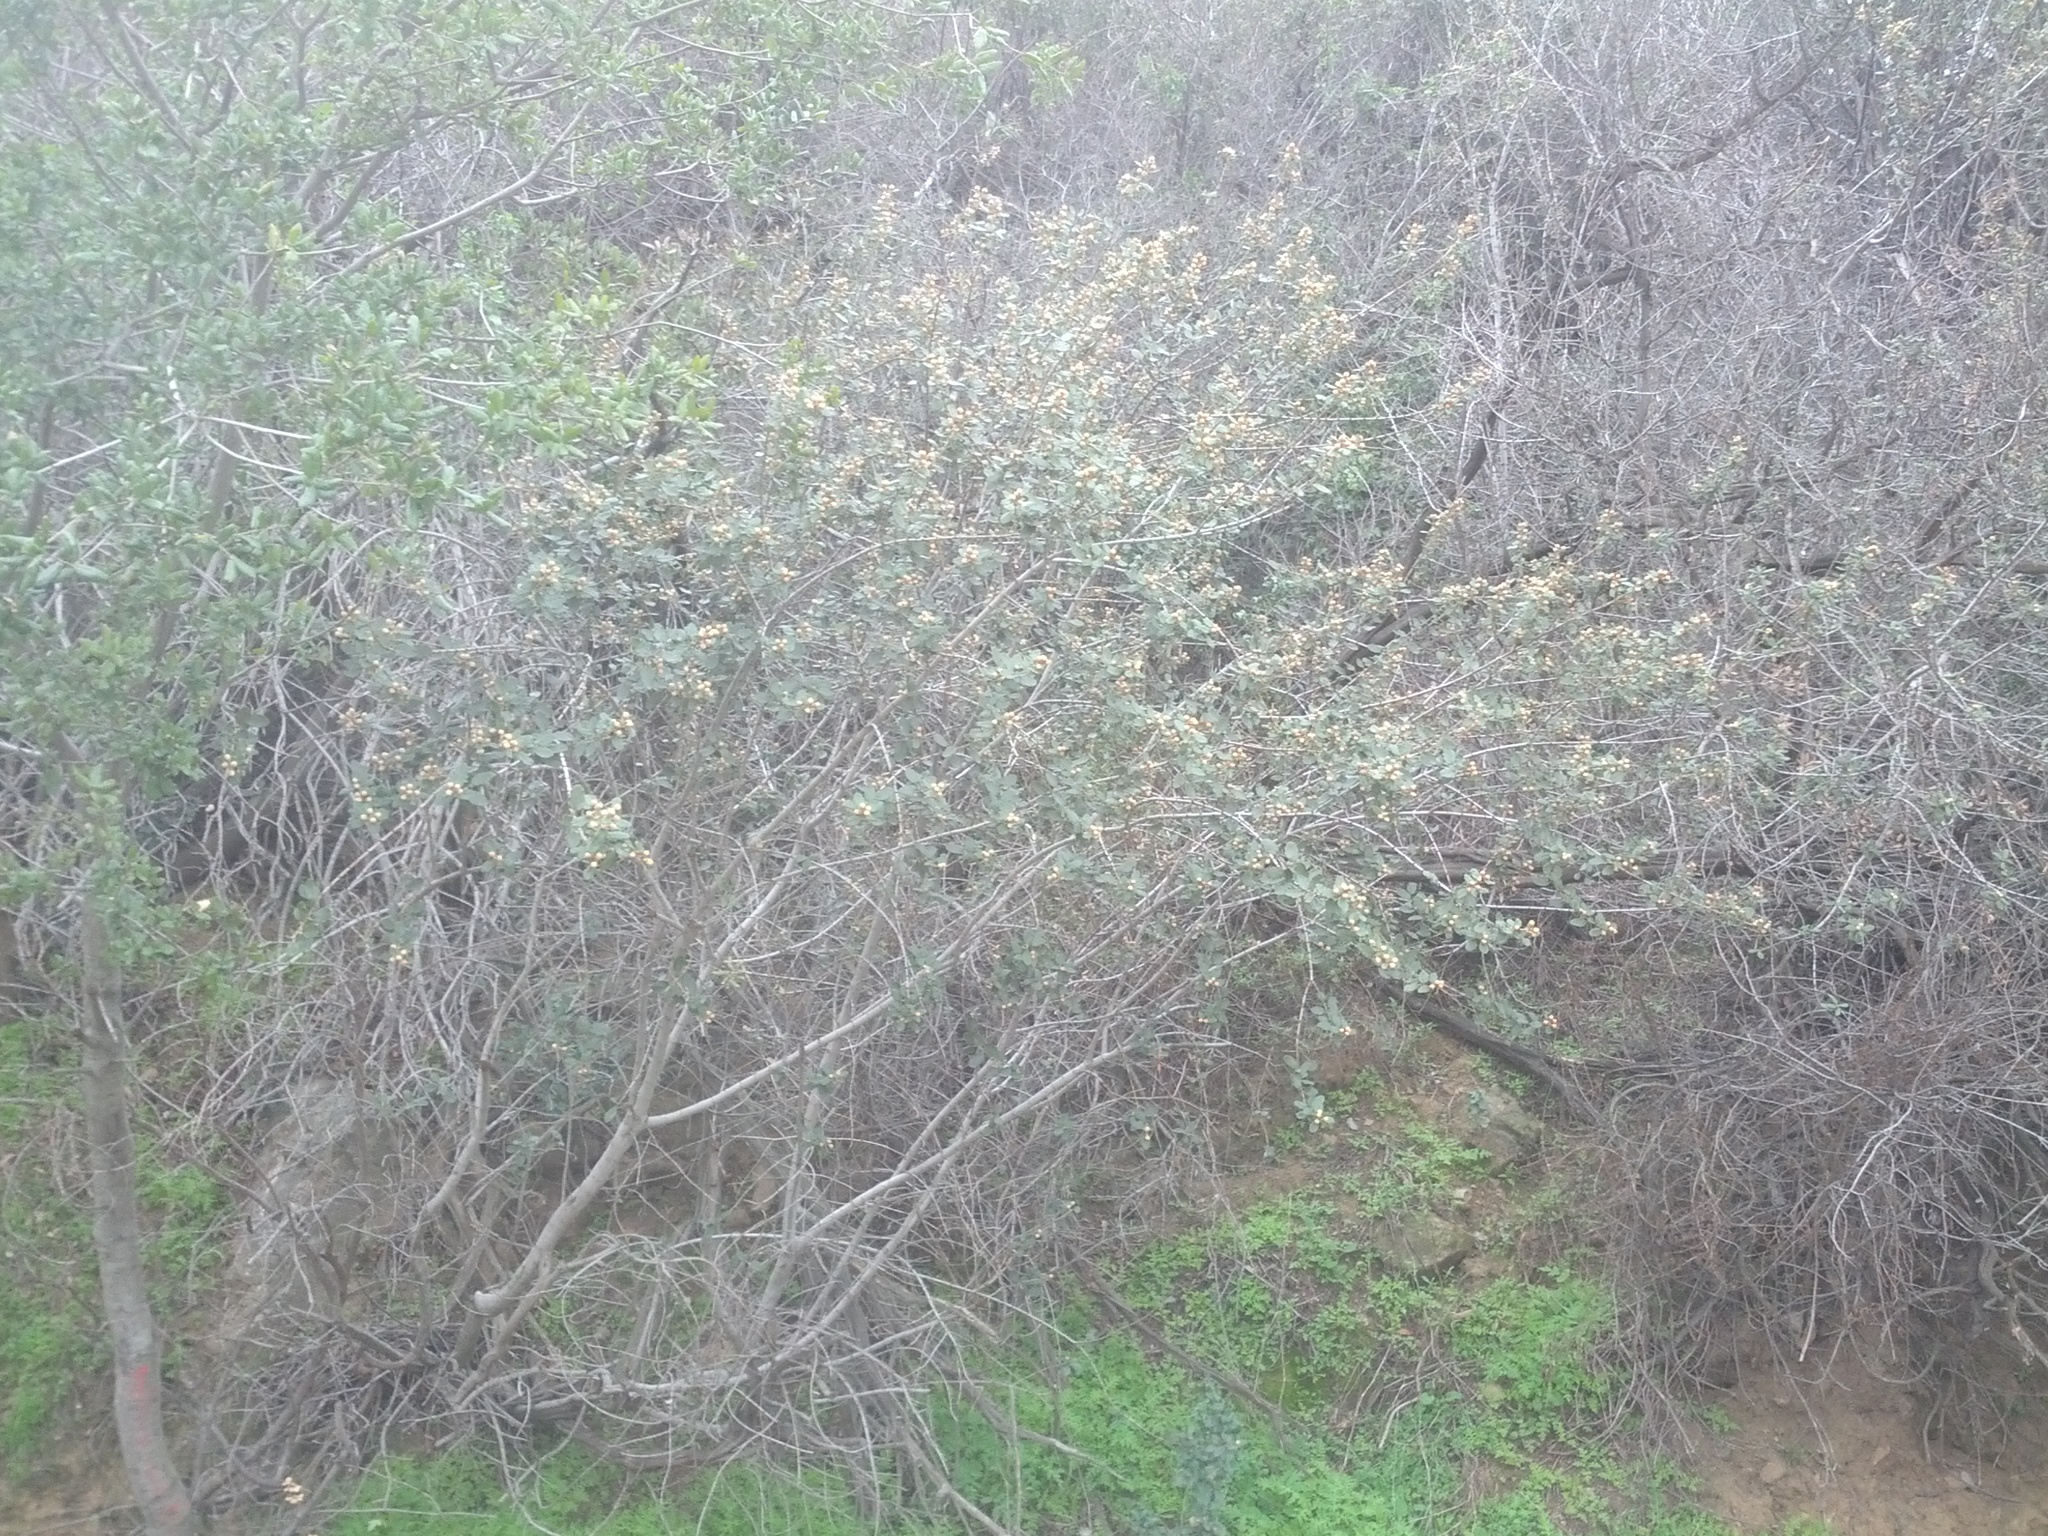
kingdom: Plantae
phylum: Tracheophyta
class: Magnoliopsida
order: Rosales
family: Rhamnaceae
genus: Ceanothus
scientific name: Ceanothus crassifolius
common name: Hoaryleaf ceanothus
